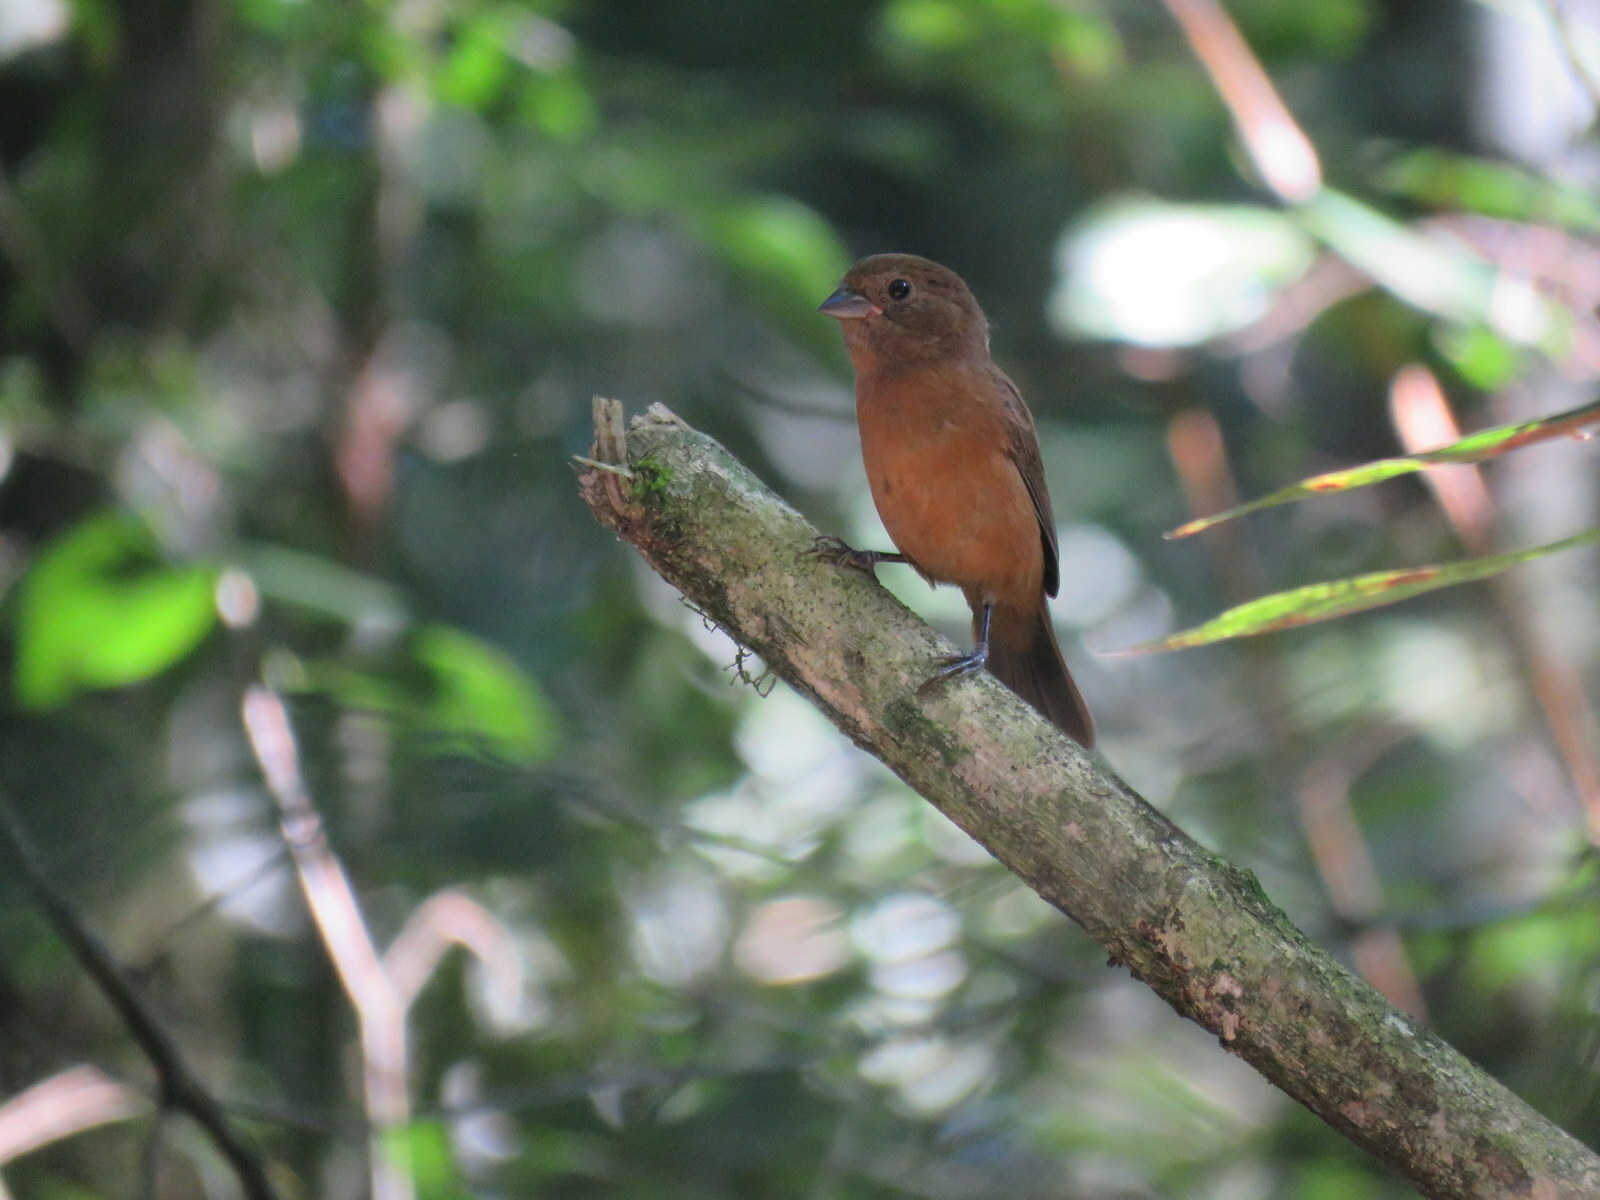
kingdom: Animalia
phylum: Chordata
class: Aves
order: Passeriformes
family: Cardinalidae
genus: Amaurospiza
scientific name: Amaurospiza moesta
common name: Blackish-blue seedeater
